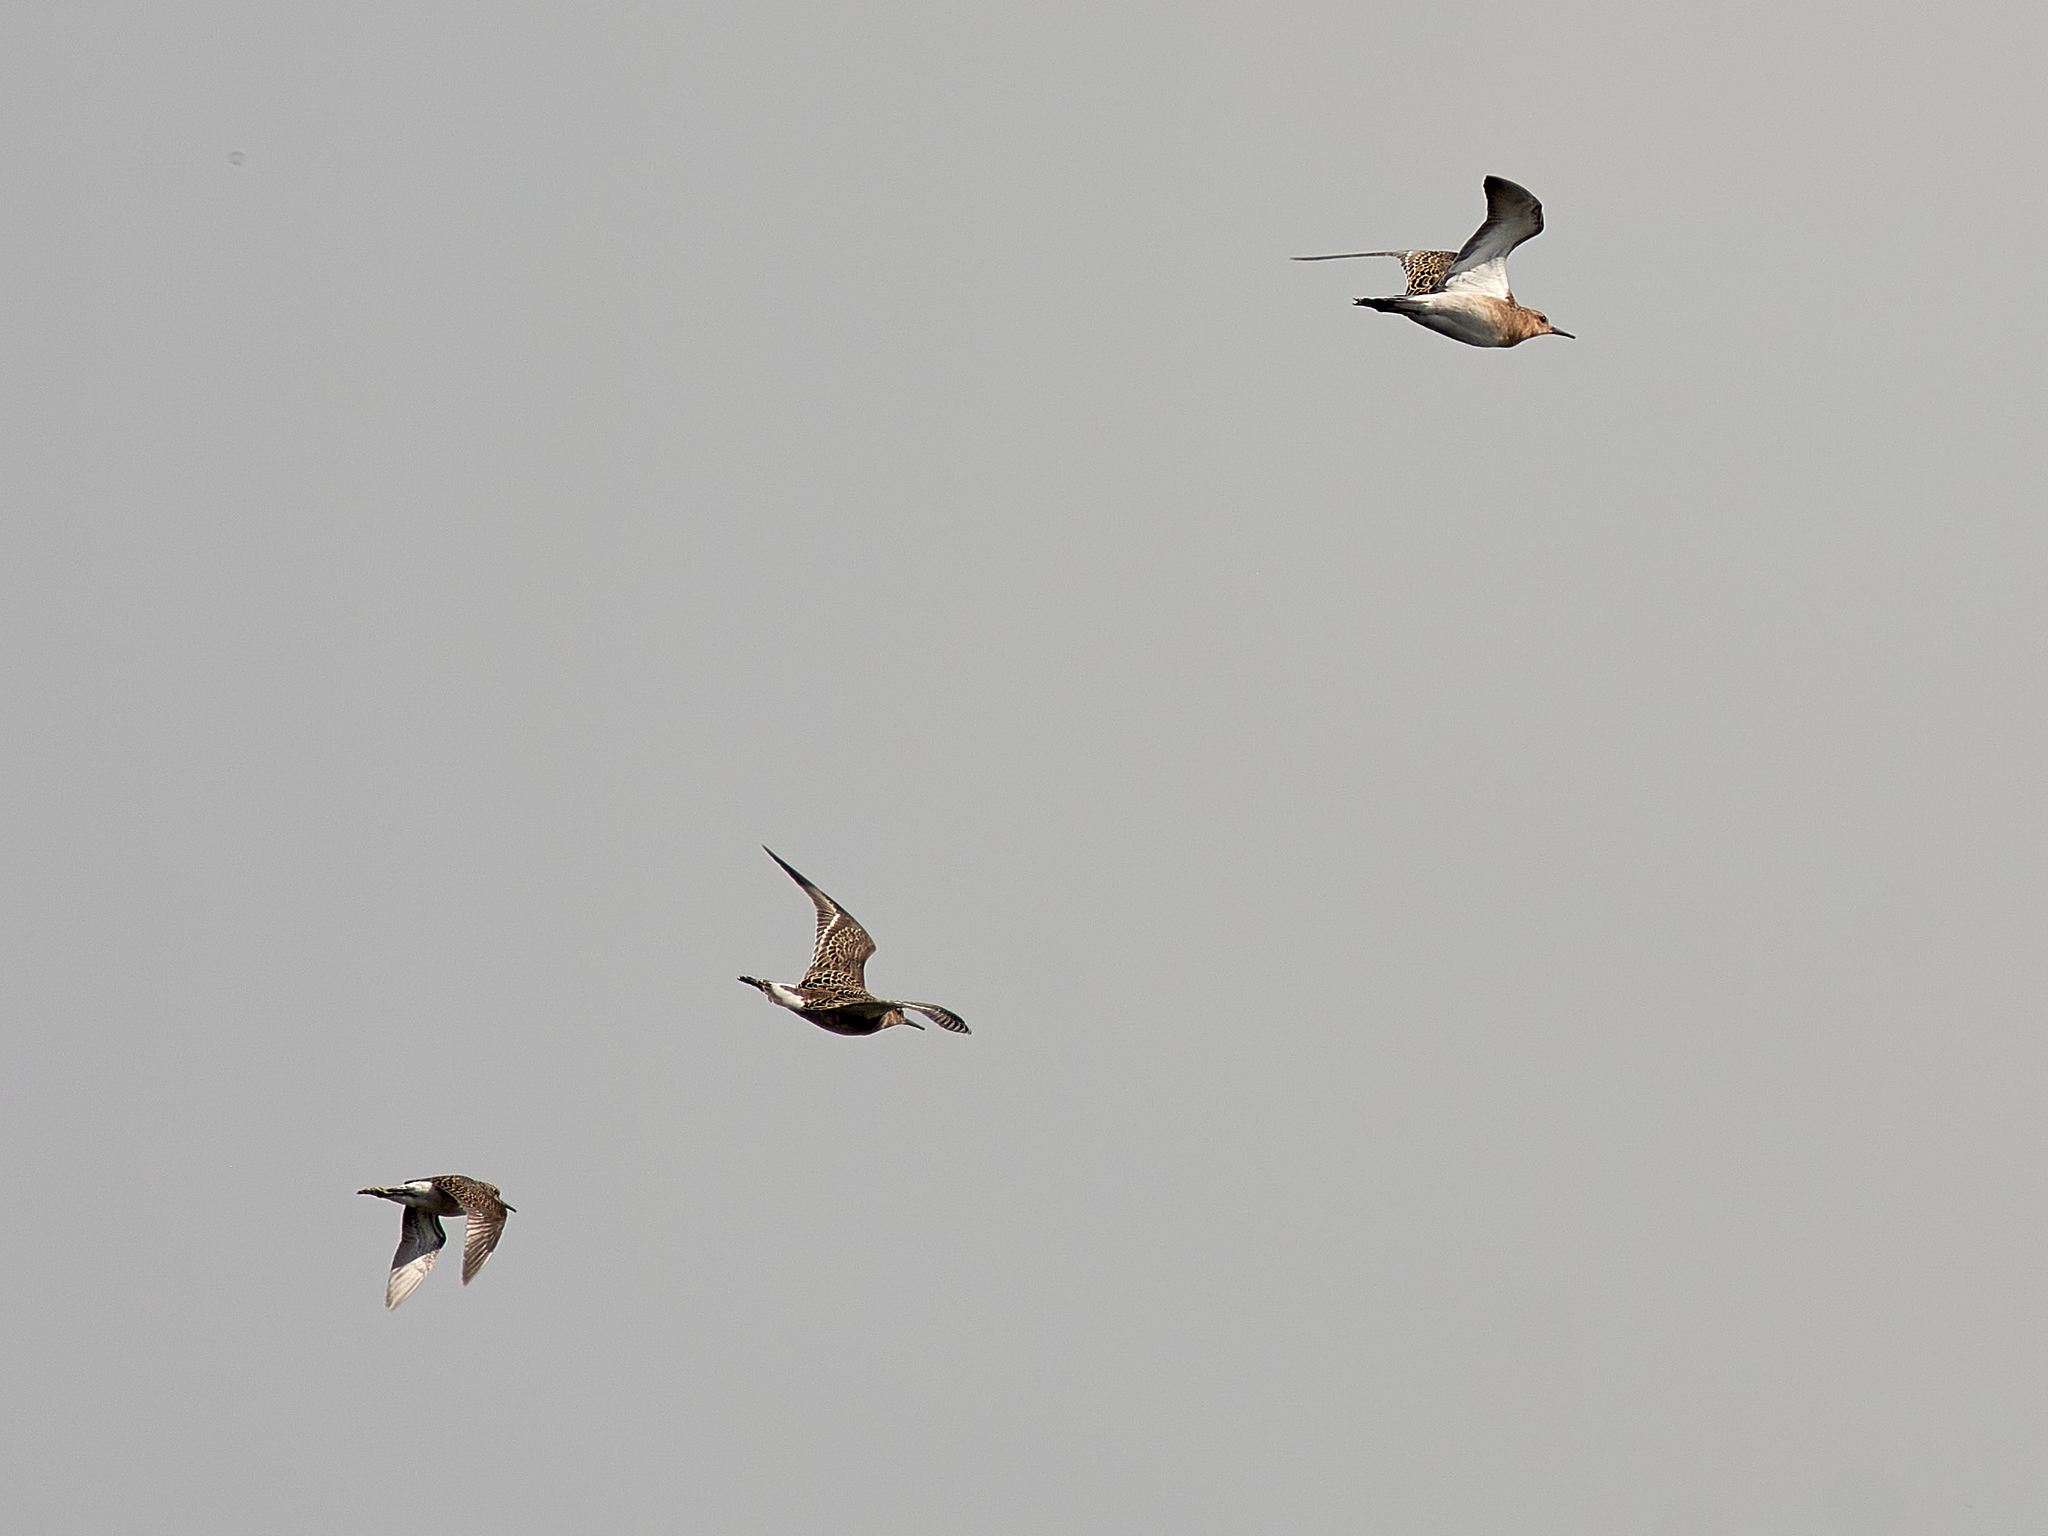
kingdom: Animalia
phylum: Chordata
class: Aves
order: Charadriiformes
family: Scolopacidae
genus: Calidris
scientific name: Calidris pugnax
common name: Ruff
